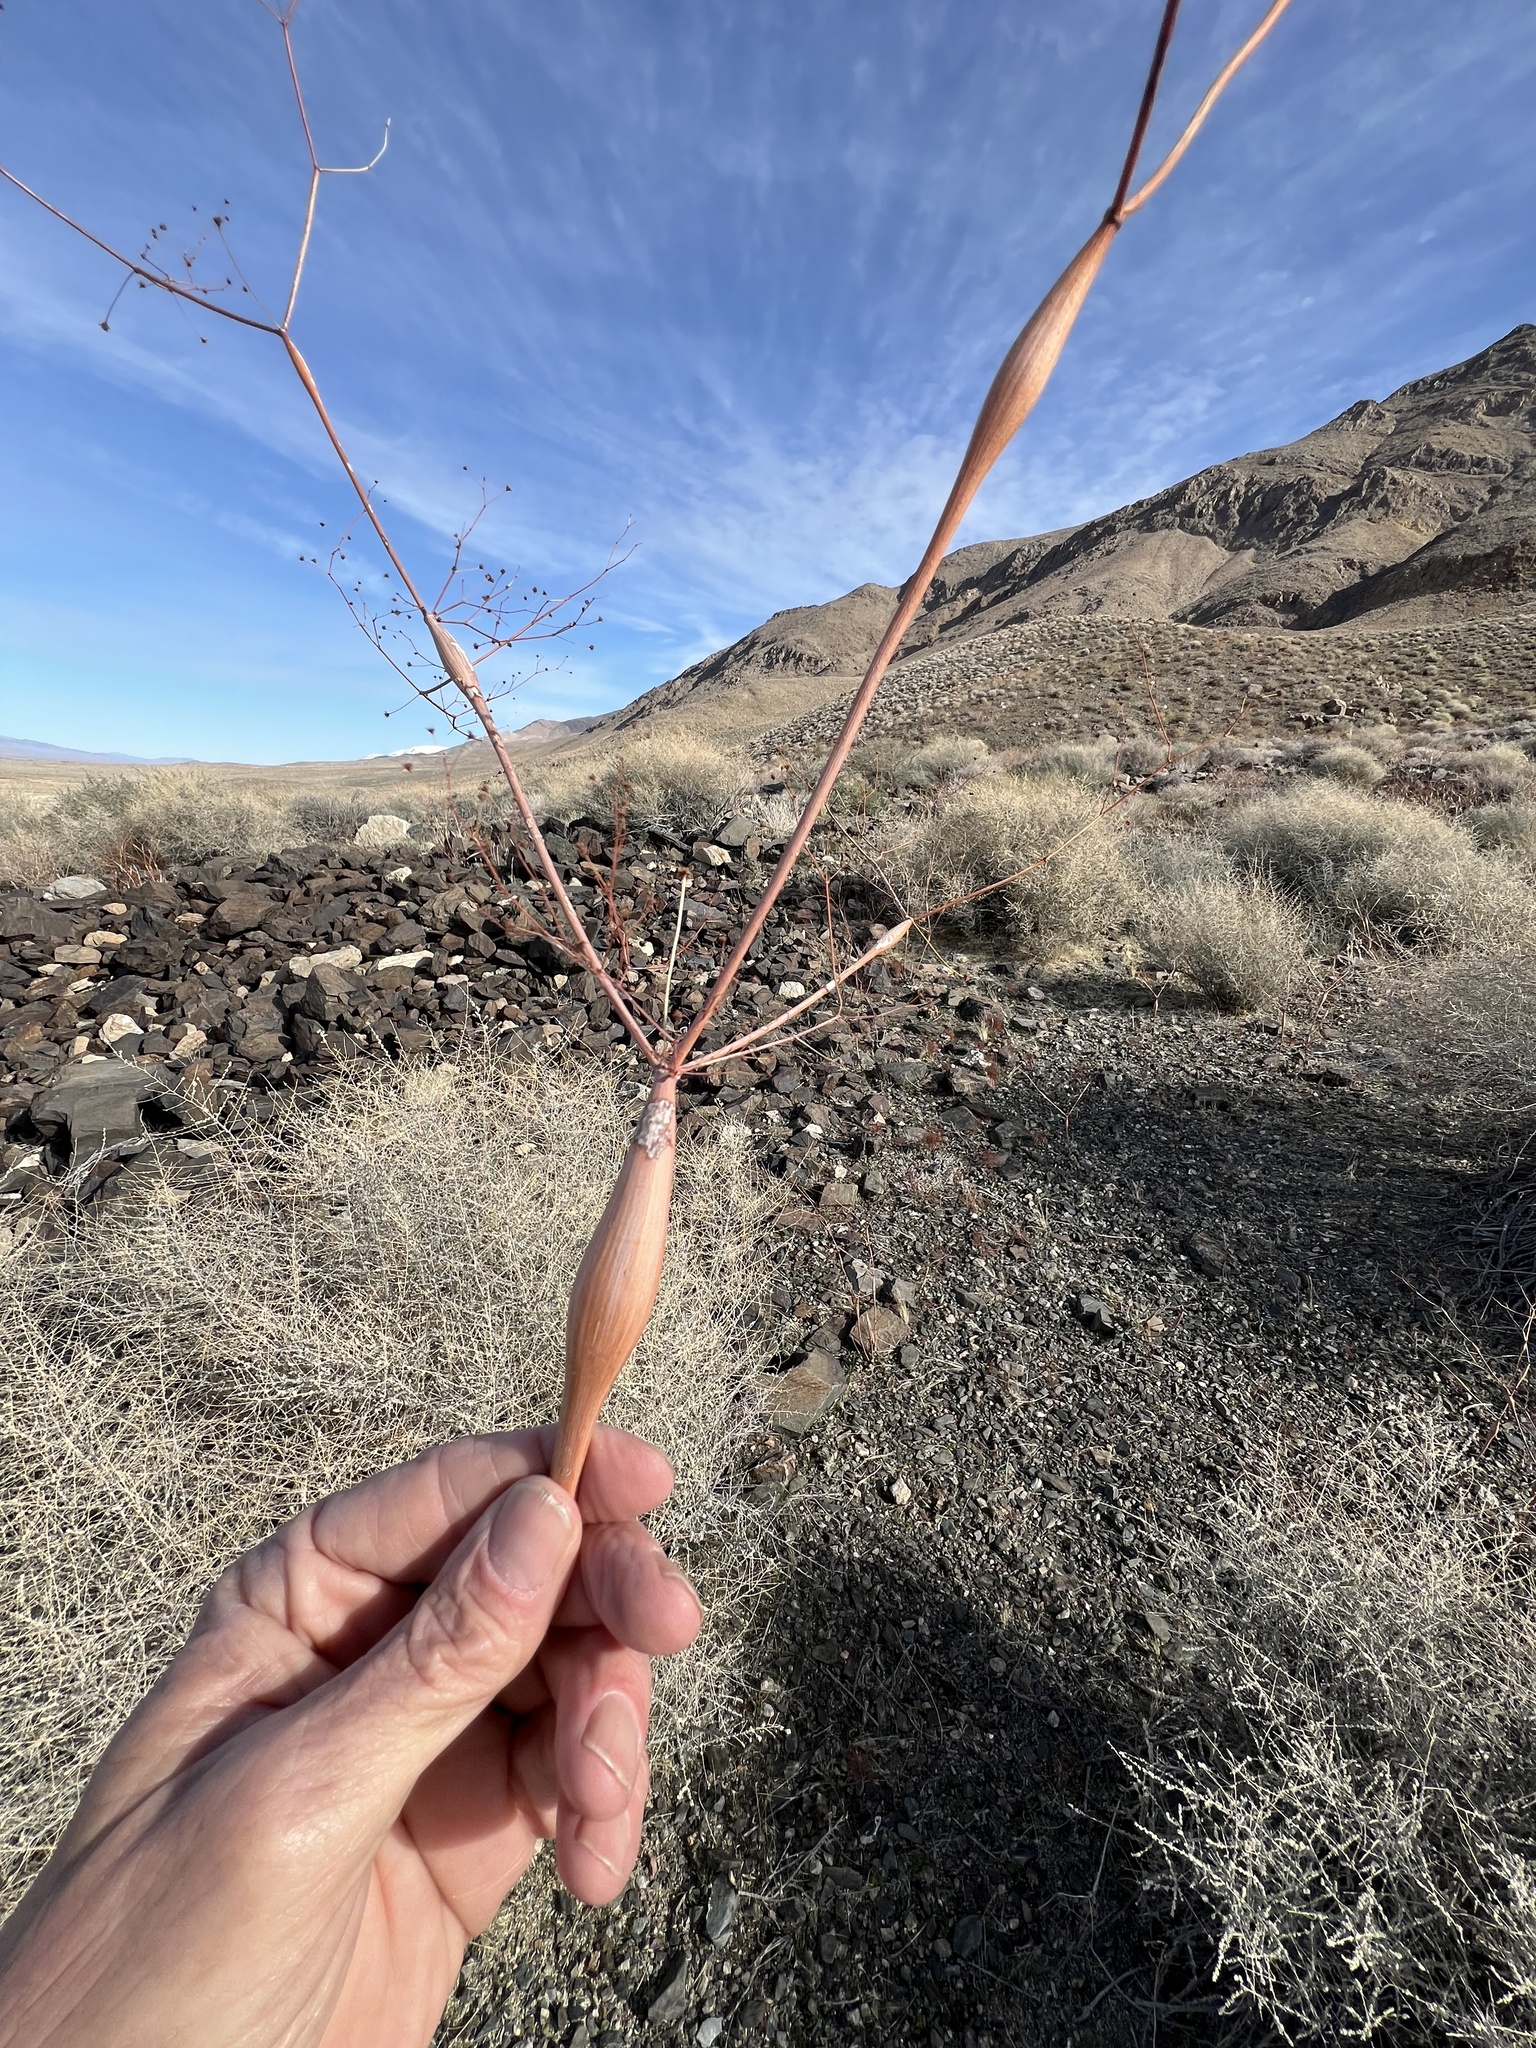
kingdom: Plantae
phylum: Tracheophyta
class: Magnoliopsida
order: Caryophyllales
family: Polygonaceae
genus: Eriogonum
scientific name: Eriogonum inflatum
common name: Desert trumpet
